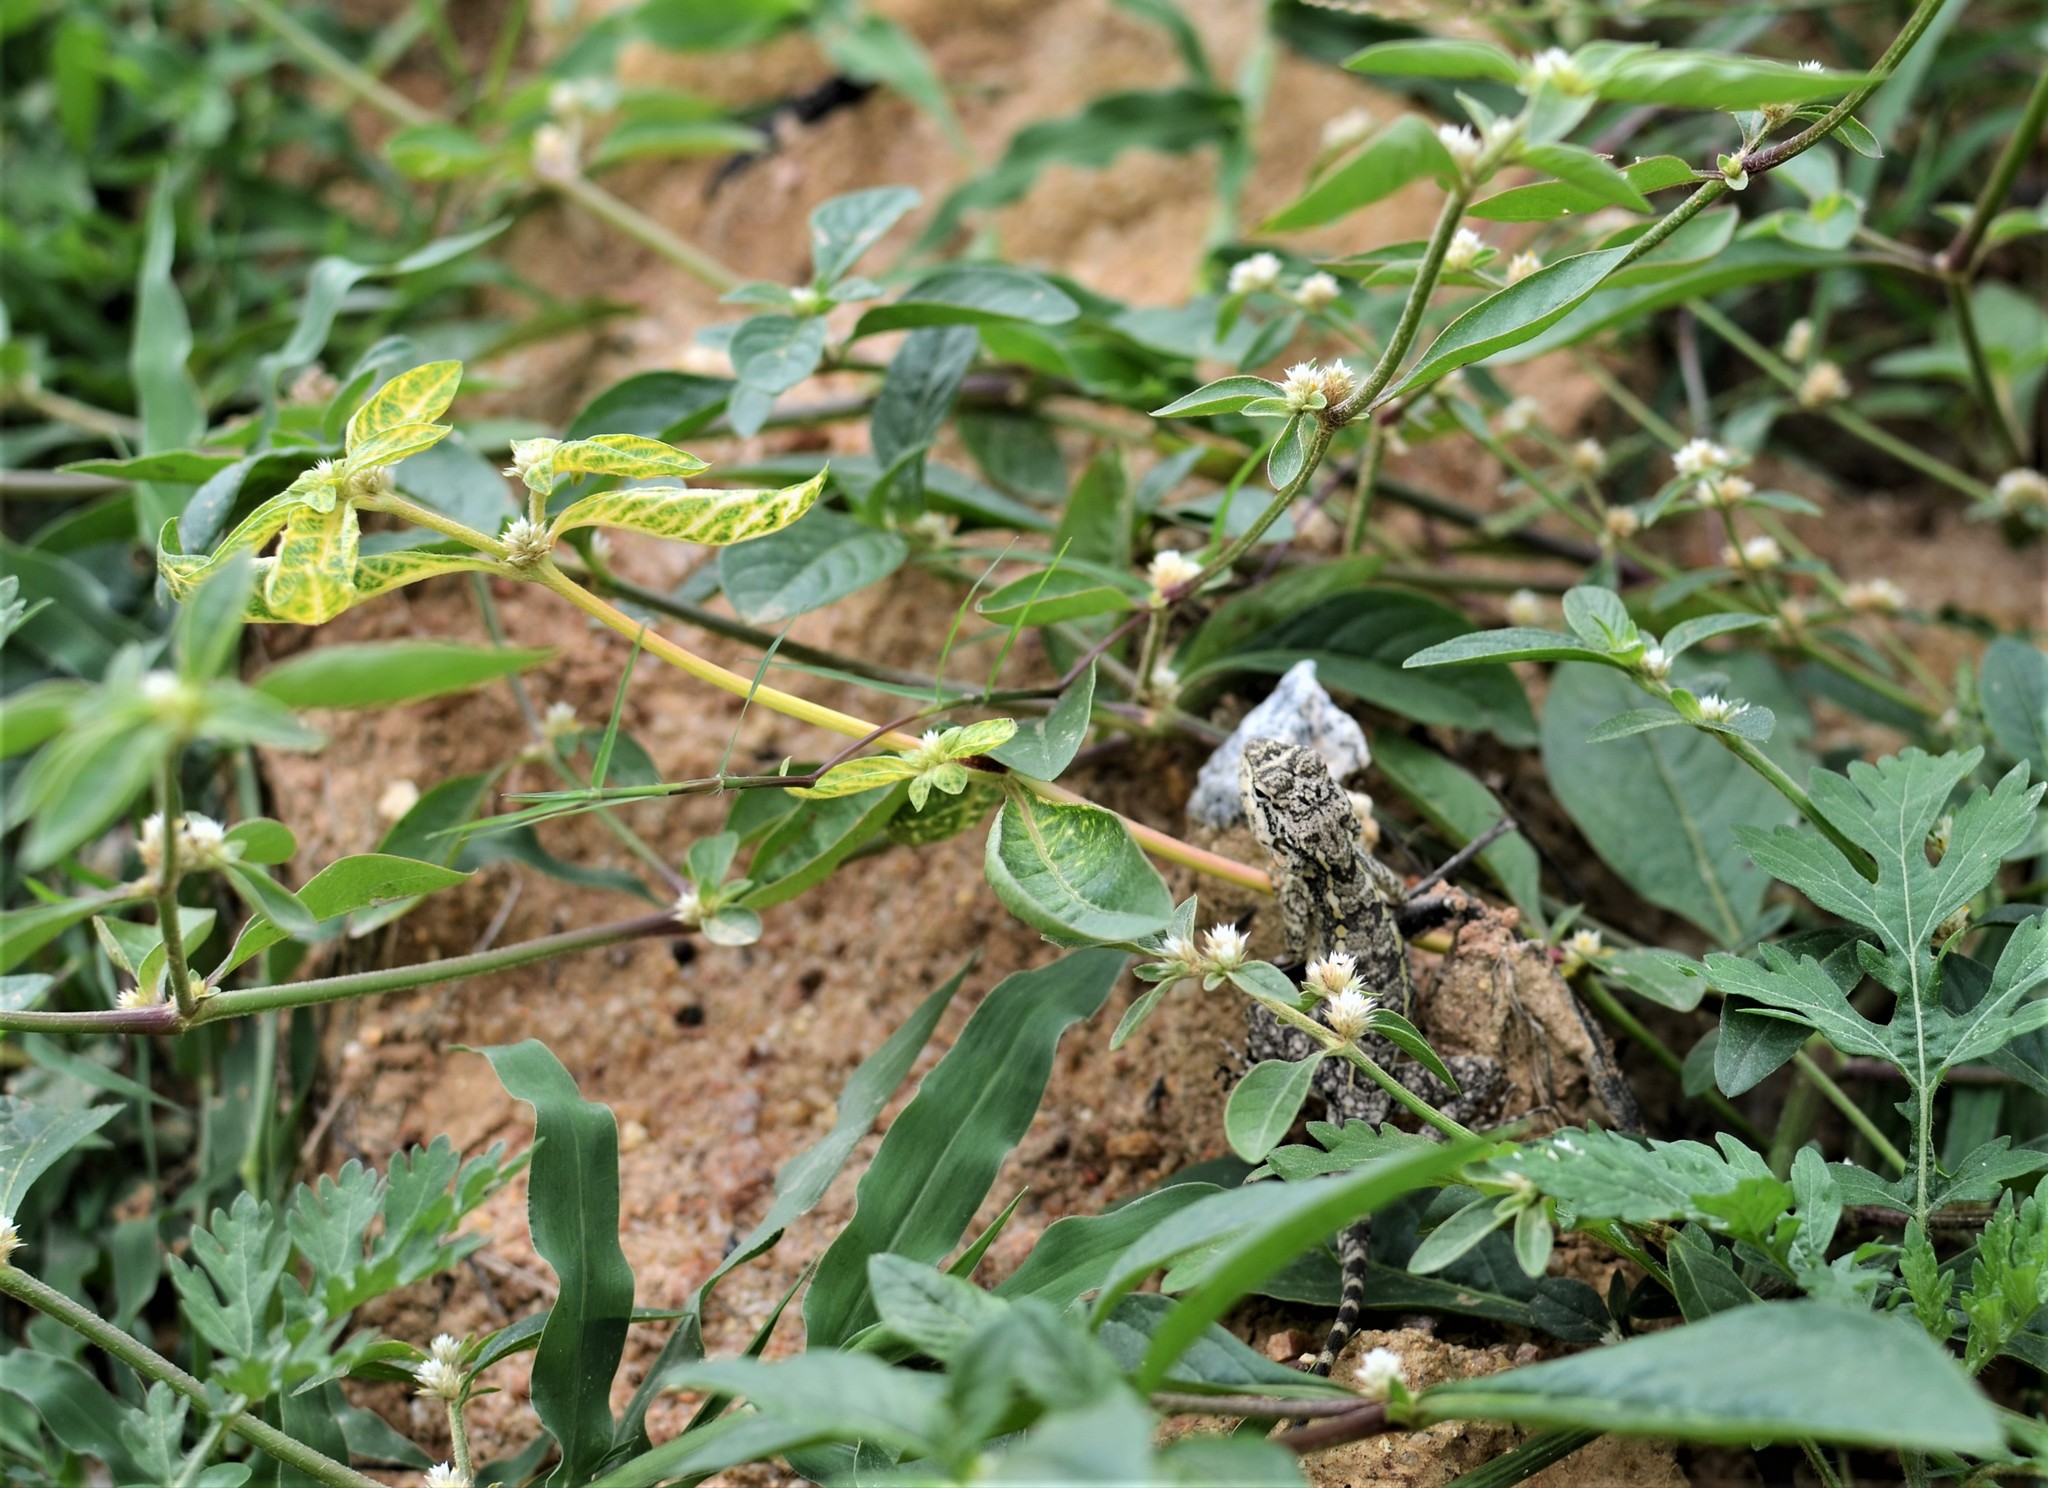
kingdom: Animalia
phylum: Chordata
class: Squamata
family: Agamidae
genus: Psammophilus
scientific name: Psammophilus dorsalis
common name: South indian rock agama
